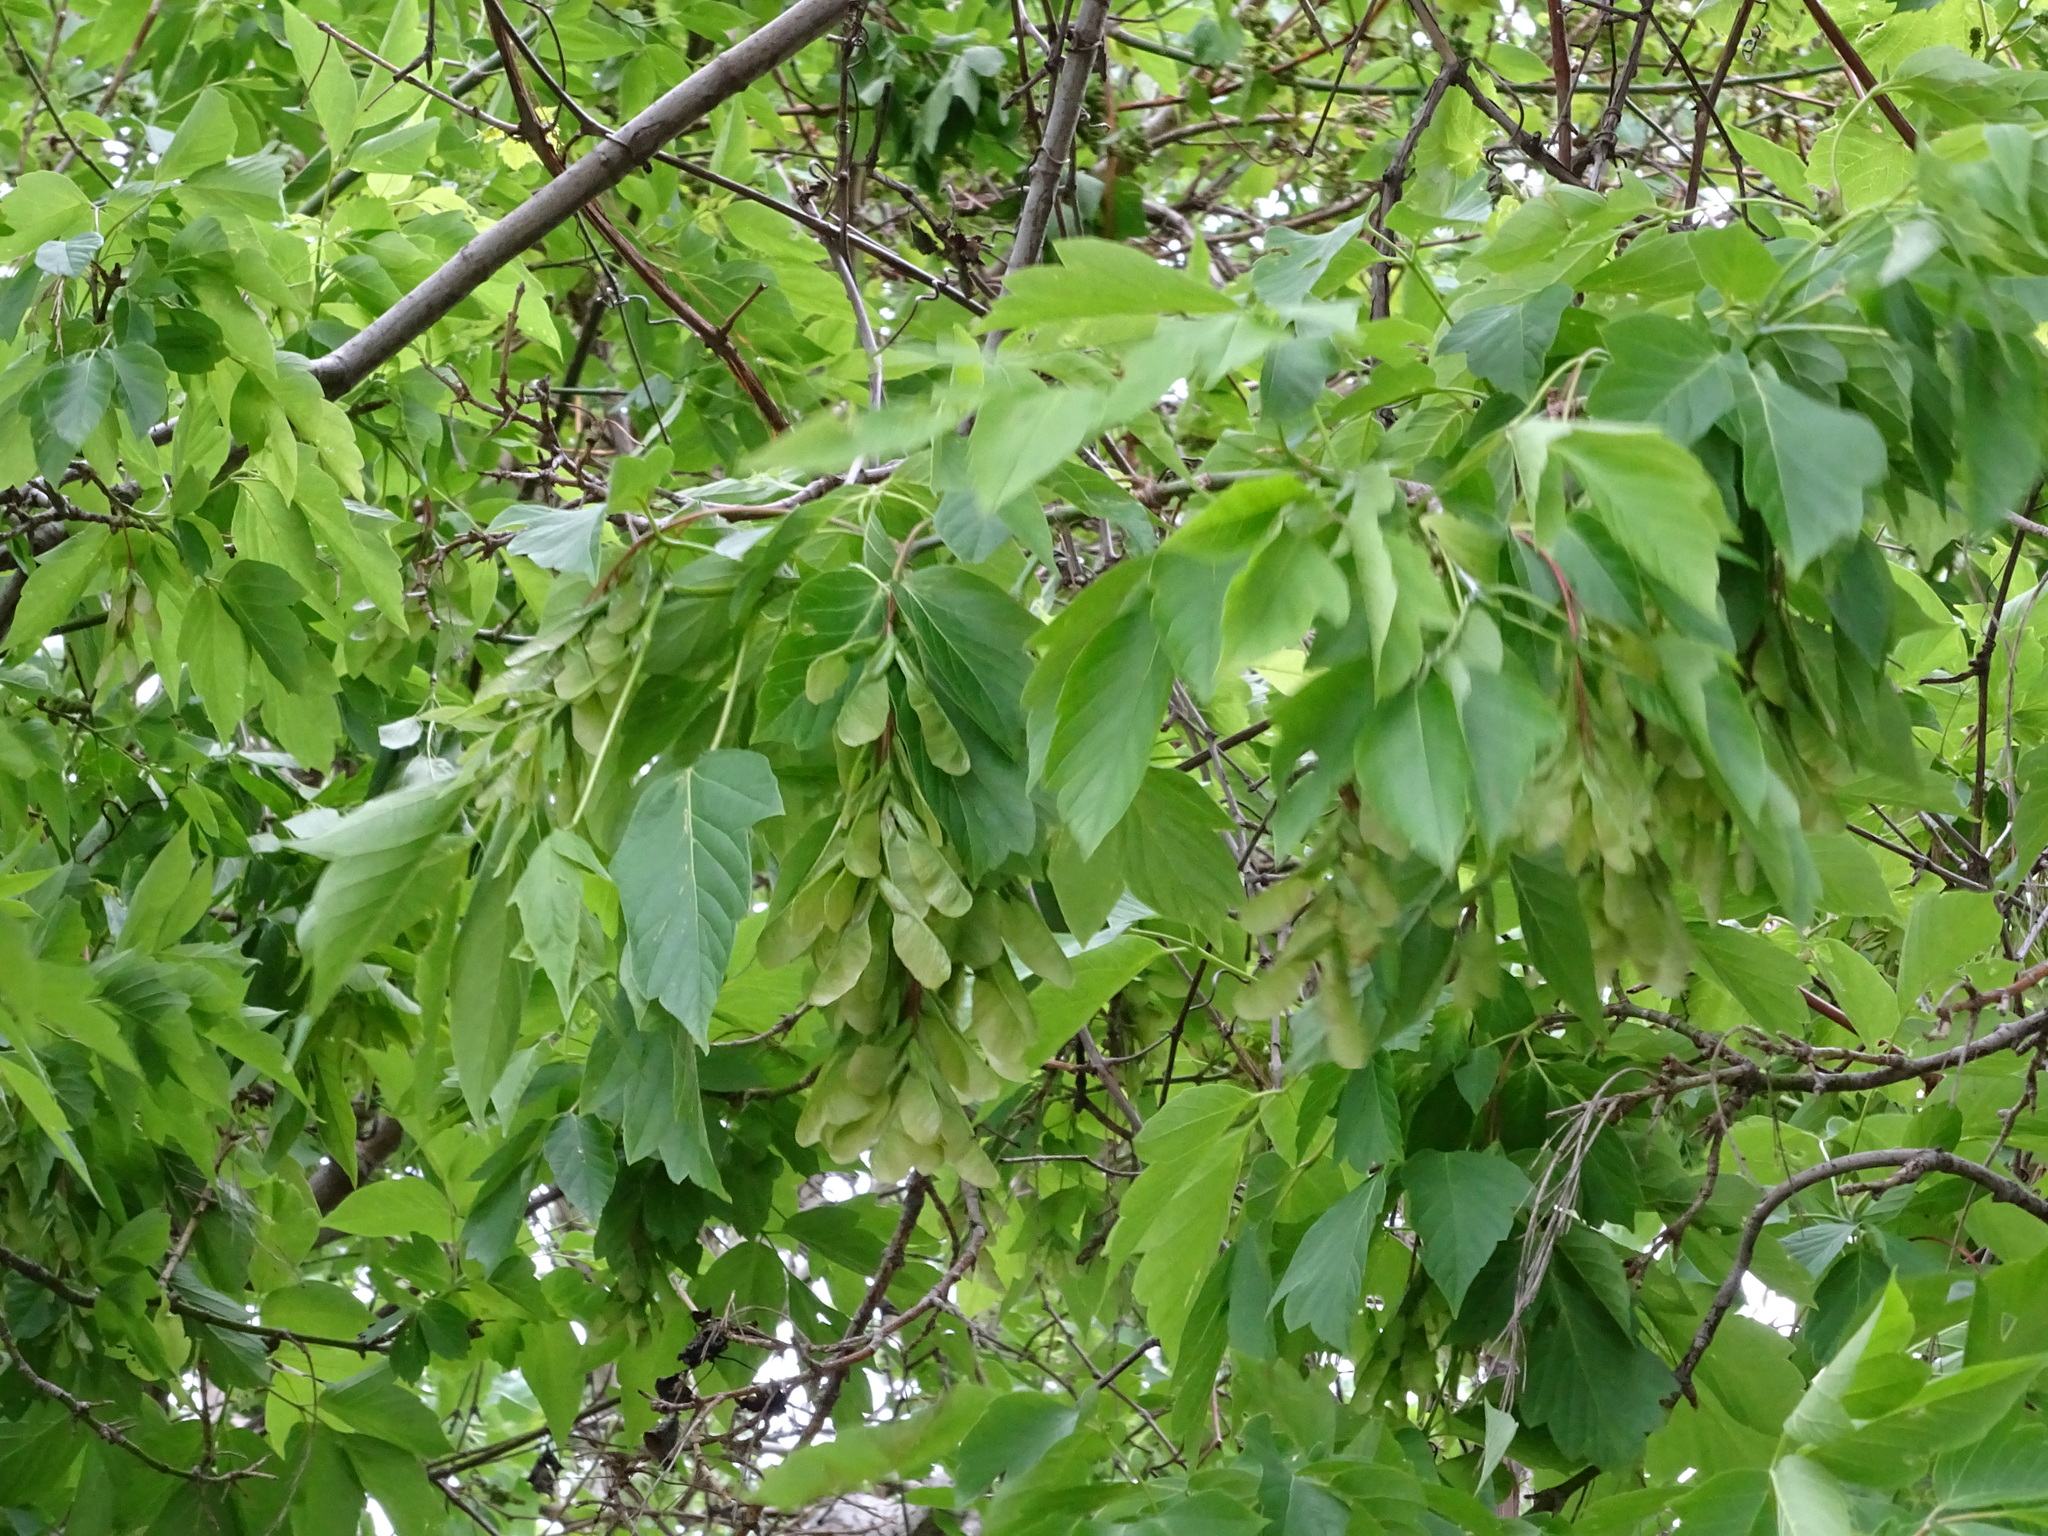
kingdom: Plantae
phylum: Tracheophyta
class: Magnoliopsida
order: Sapindales
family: Sapindaceae
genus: Acer
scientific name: Acer negundo
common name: Ashleaf maple
